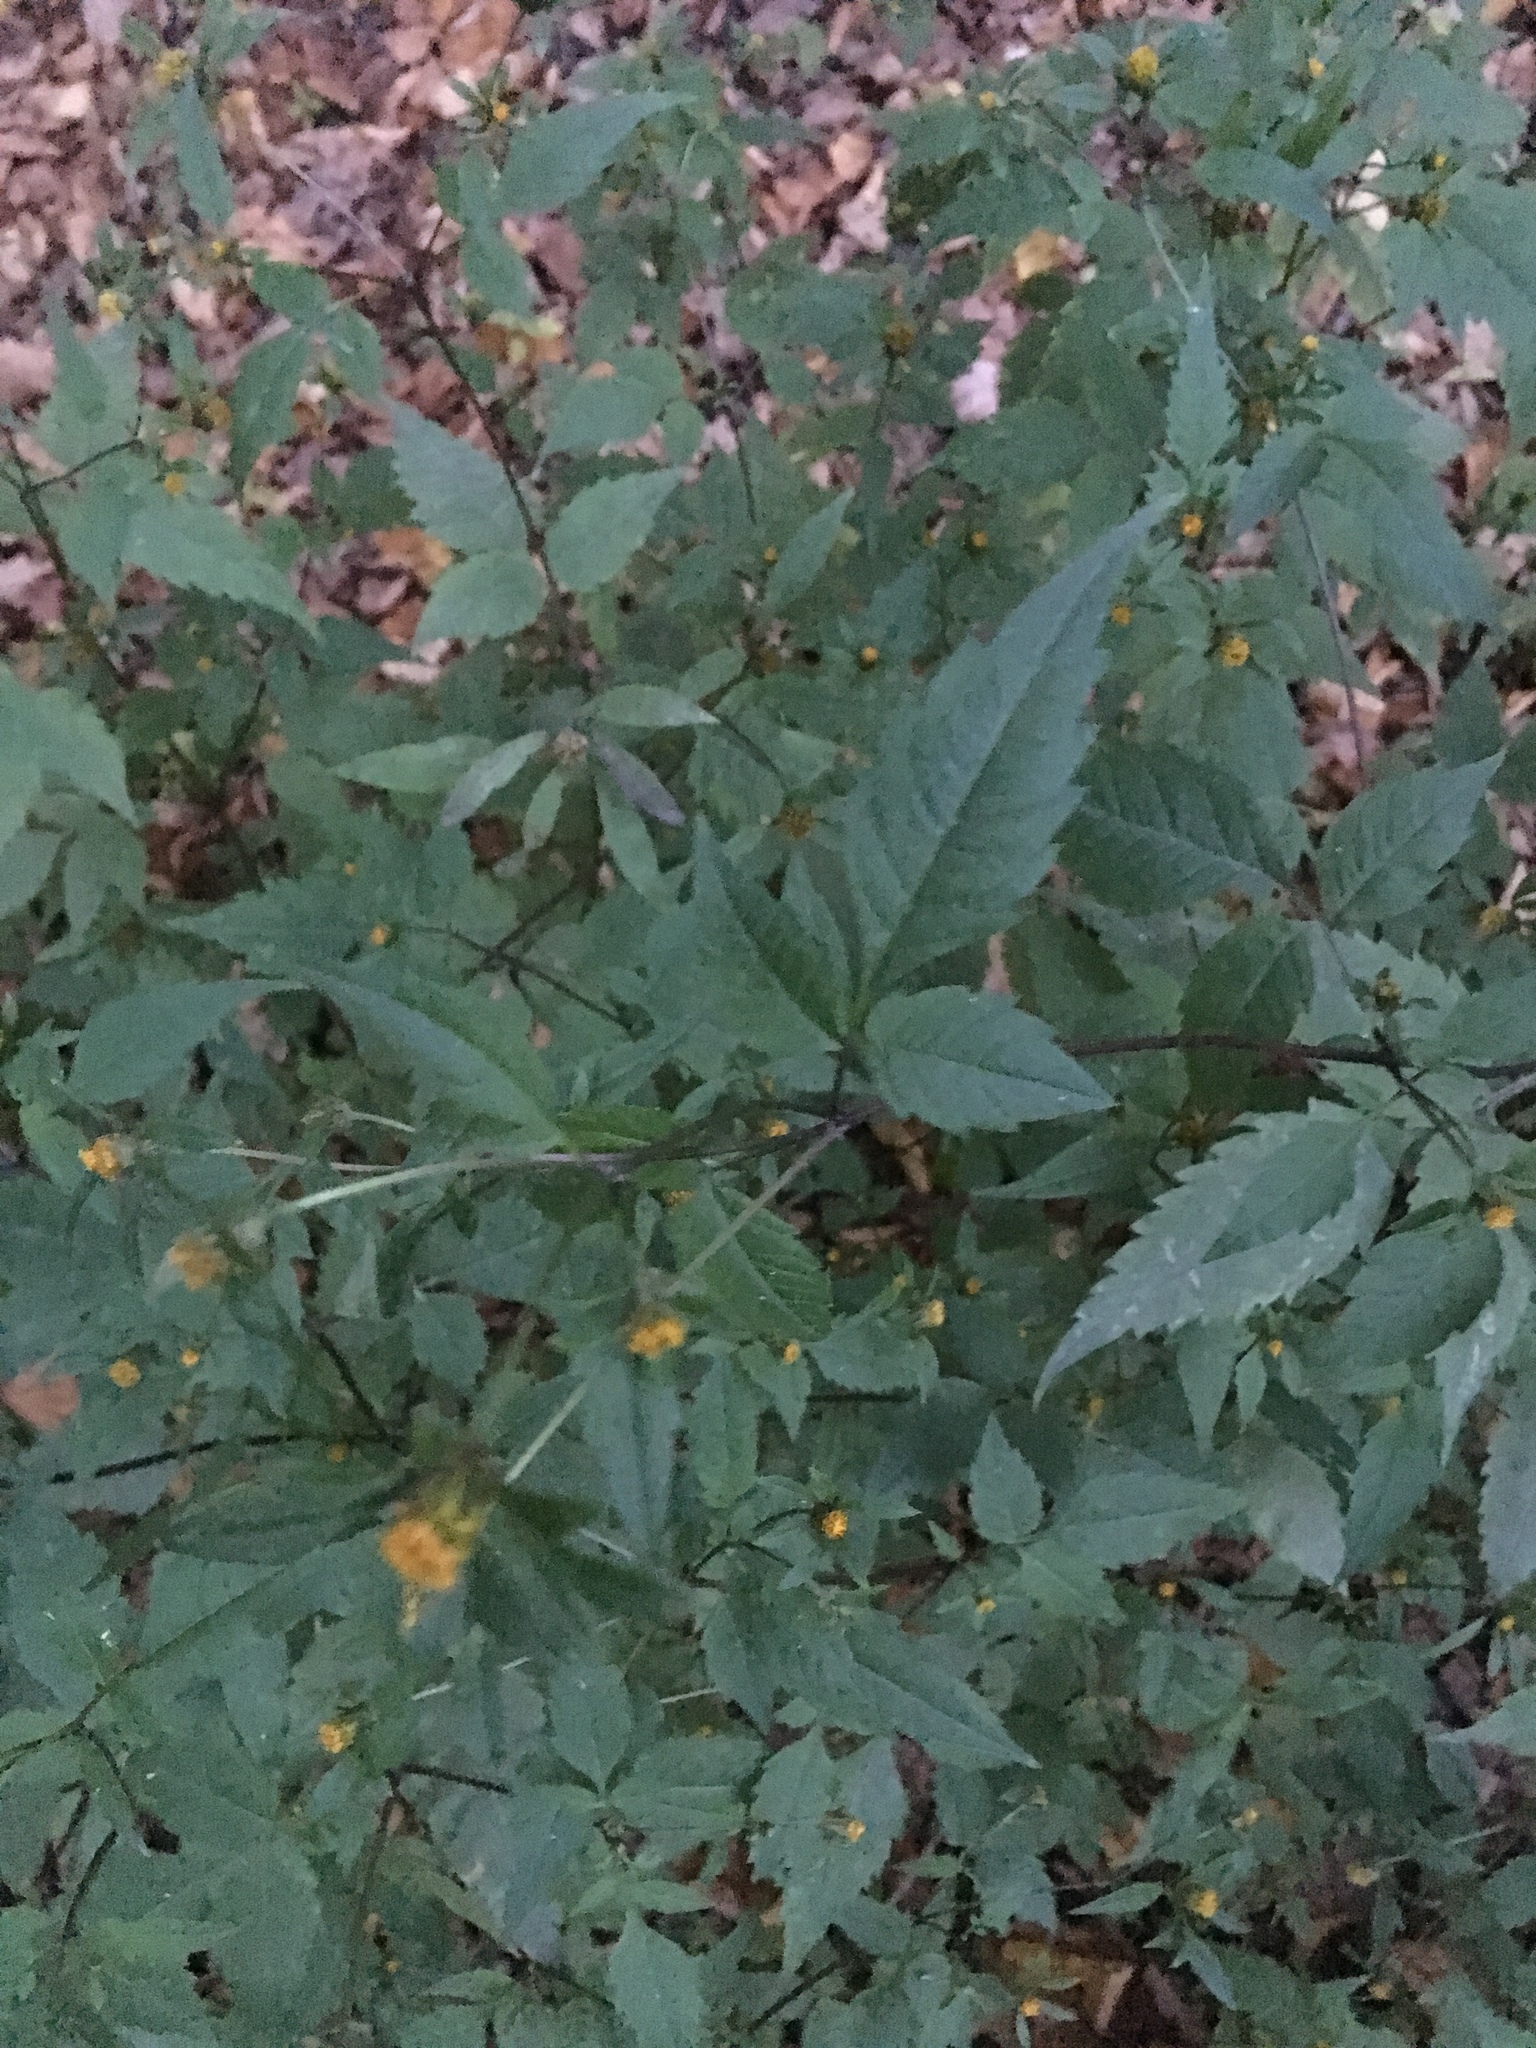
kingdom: Plantae
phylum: Tracheophyta
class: Magnoliopsida
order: Asterales
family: Asteraceae
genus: Bidens
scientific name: Bidens frondosa
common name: Beggarticks
